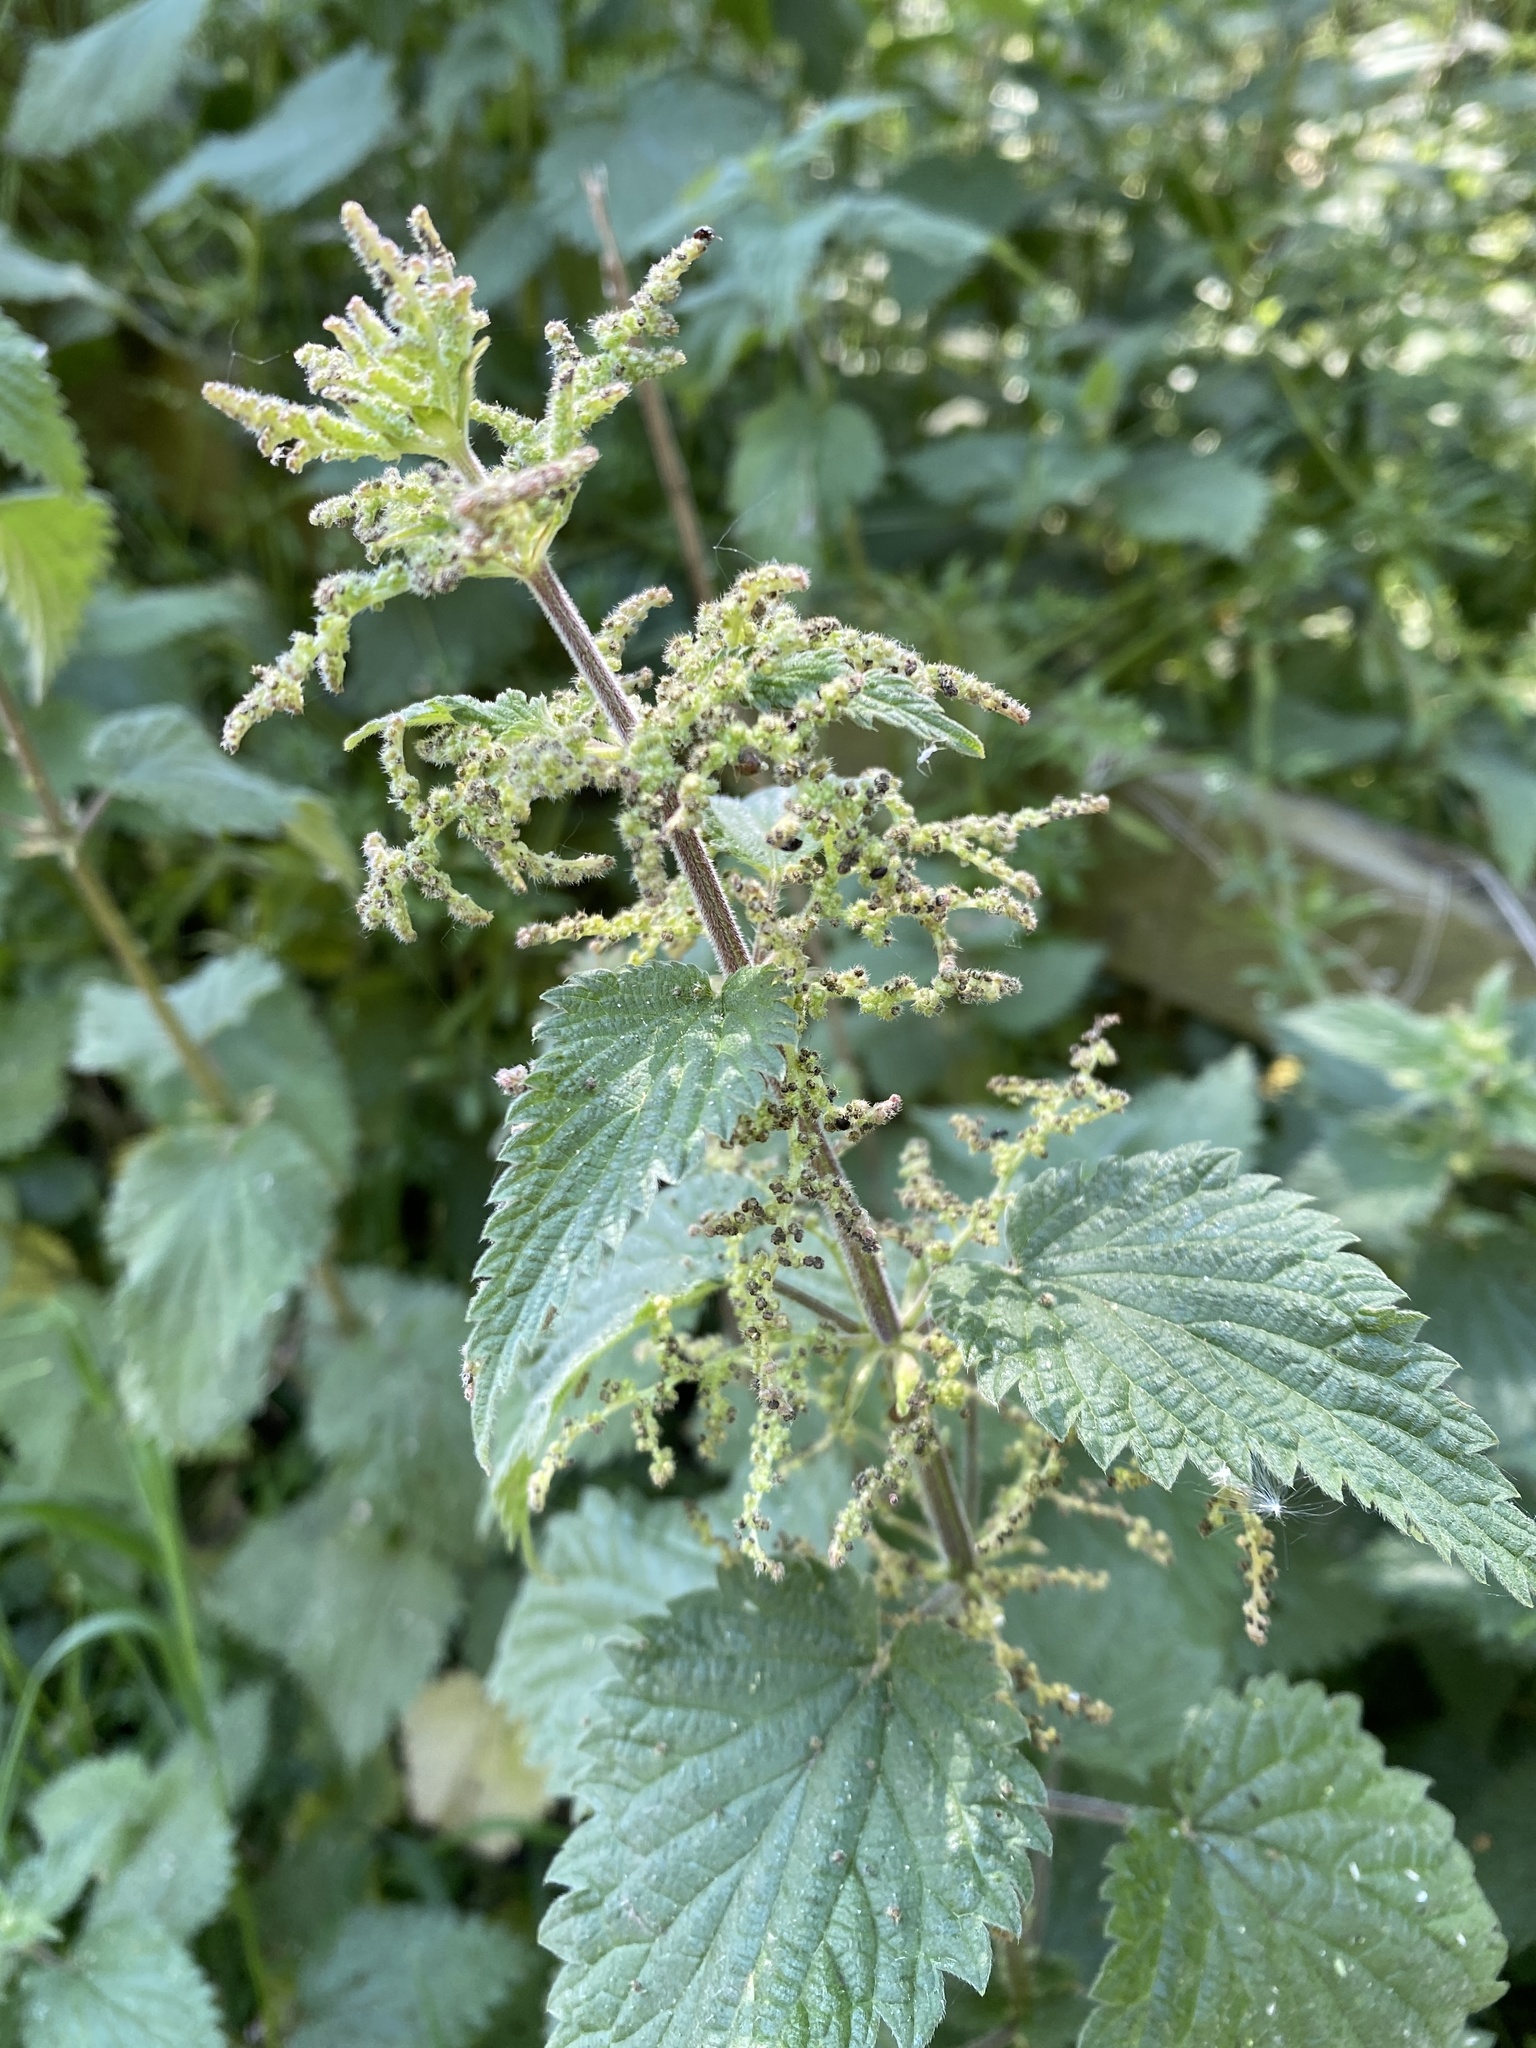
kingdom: Plantae
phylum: Tracheophyta
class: Magnoliopsida
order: Rosales
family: Urticaceae
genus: Urtica
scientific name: Urtica dioica
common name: Common nettle
